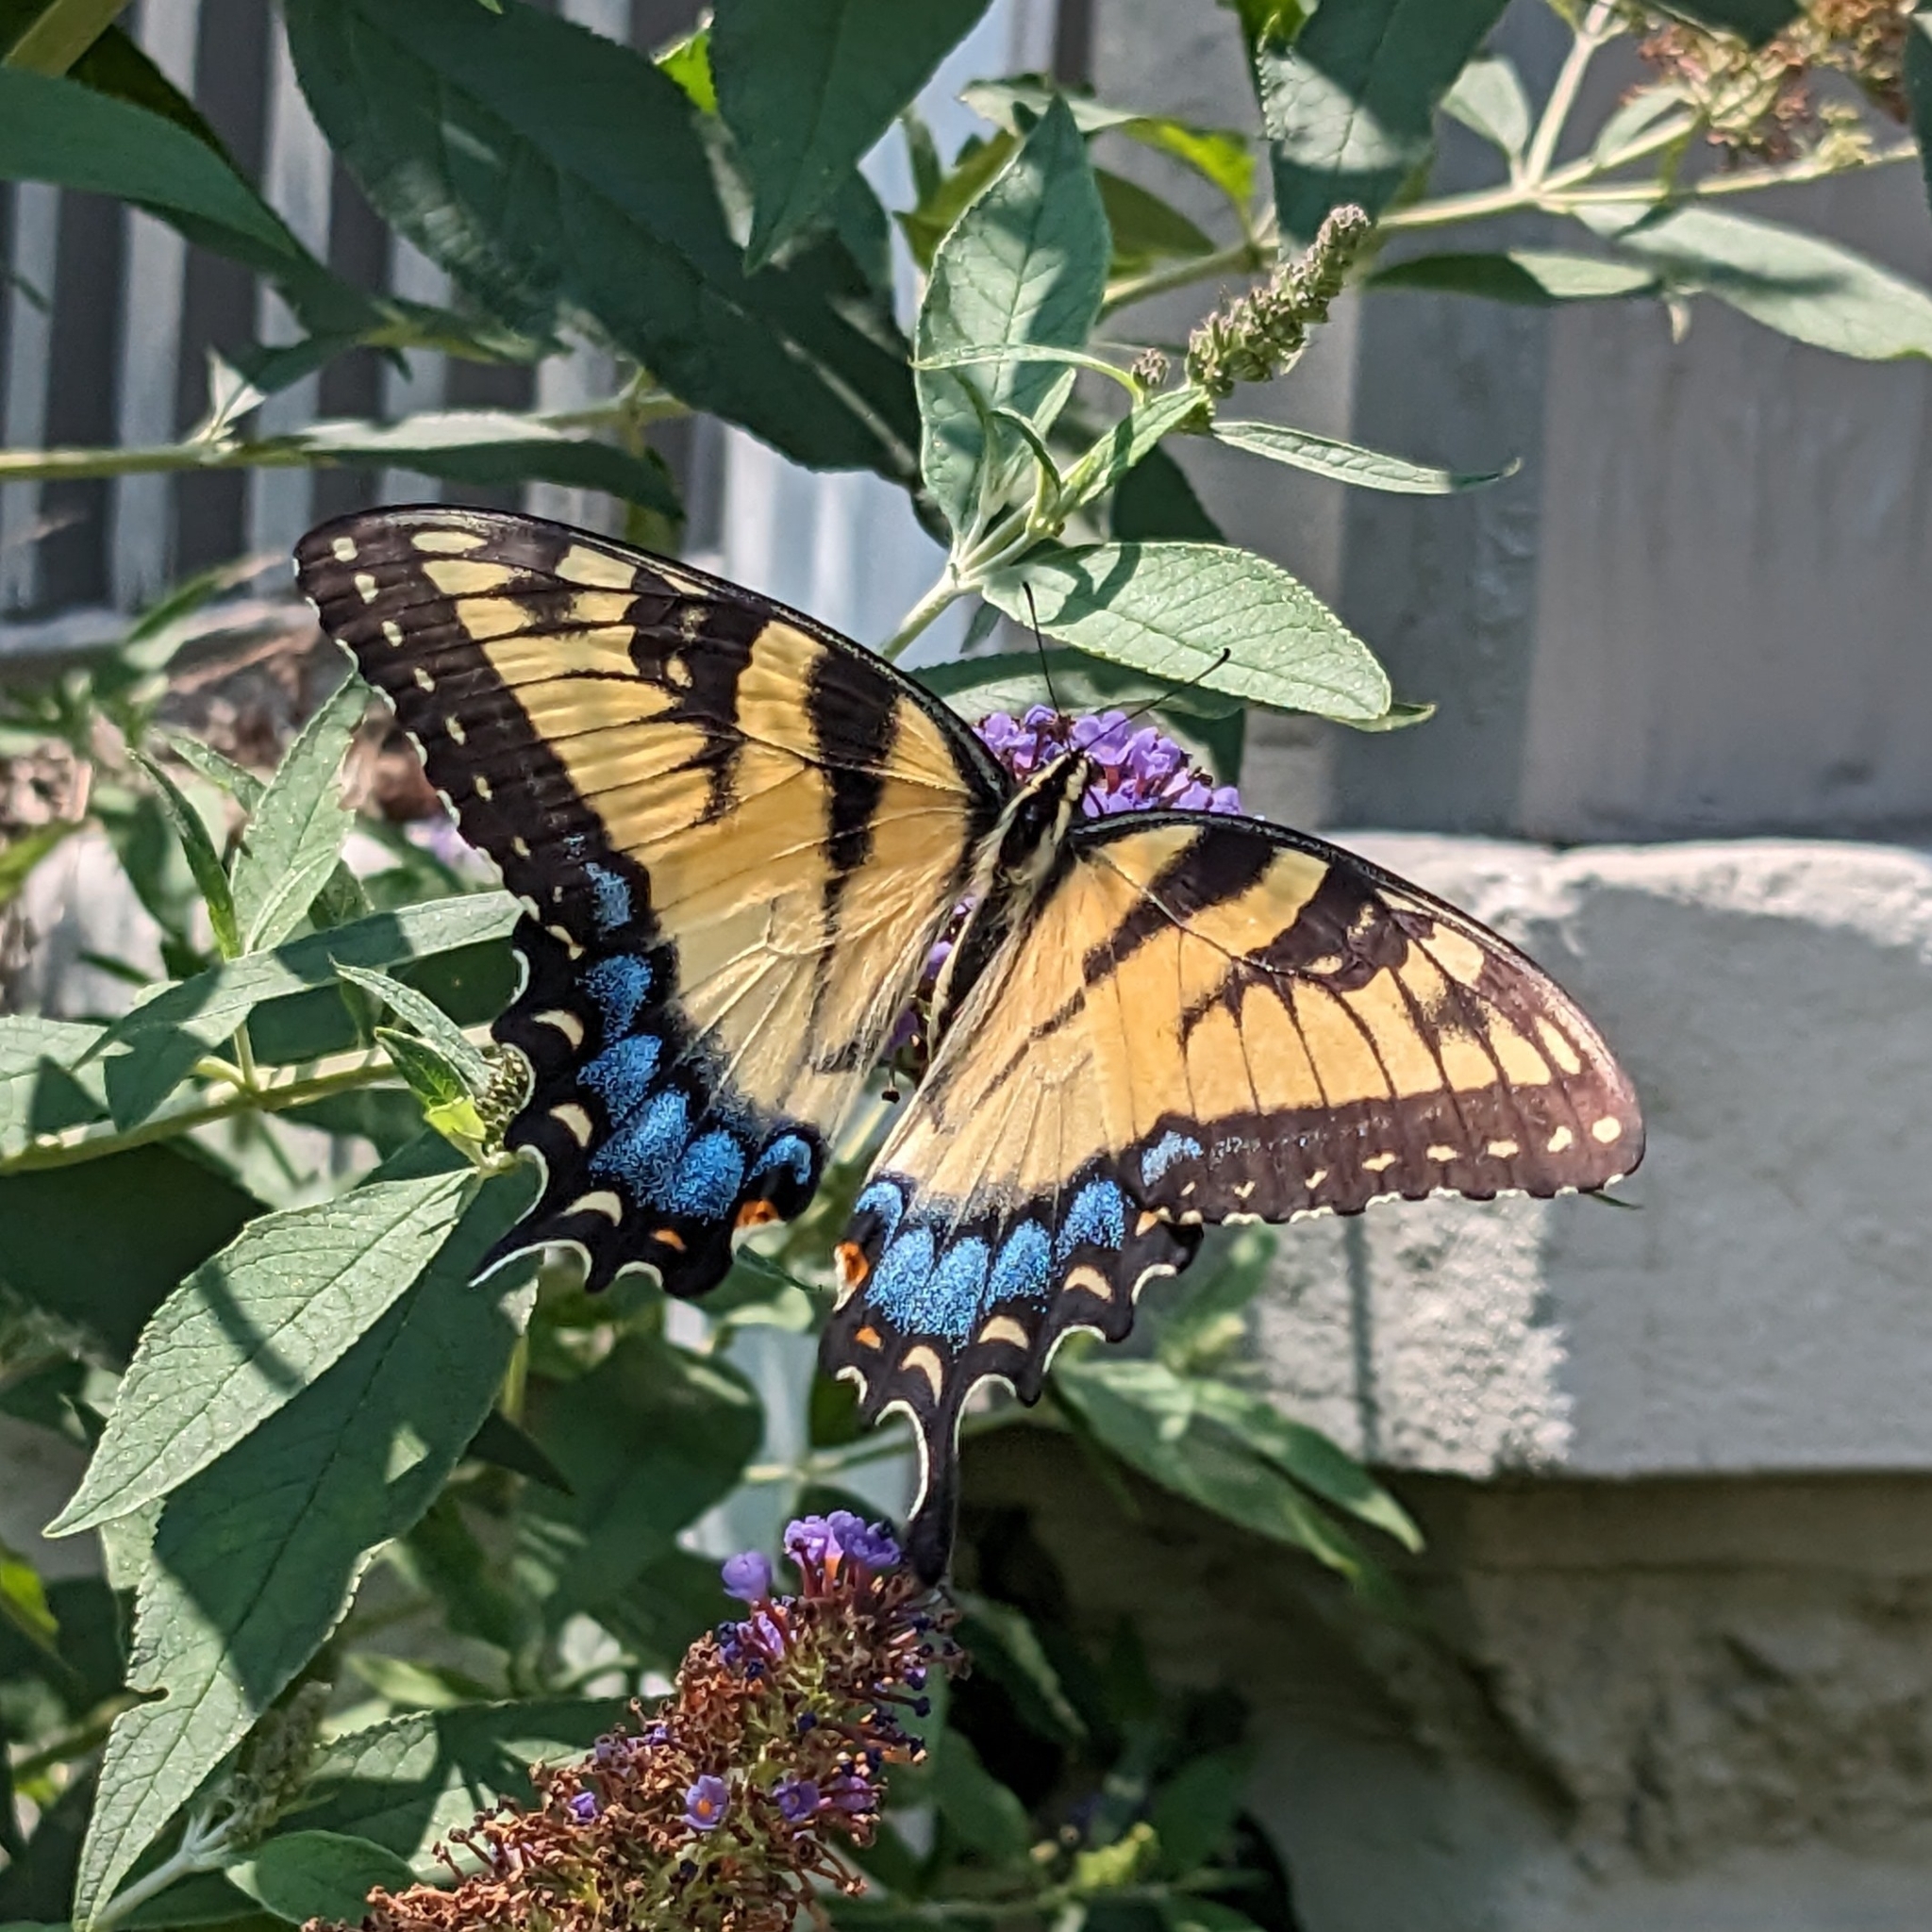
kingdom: Animalia
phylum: Arthropoda
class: Insecta
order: Lepidoptera
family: Papilionidae
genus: Papilio
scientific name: Papilio glaucus
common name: Tiger swallowtail
